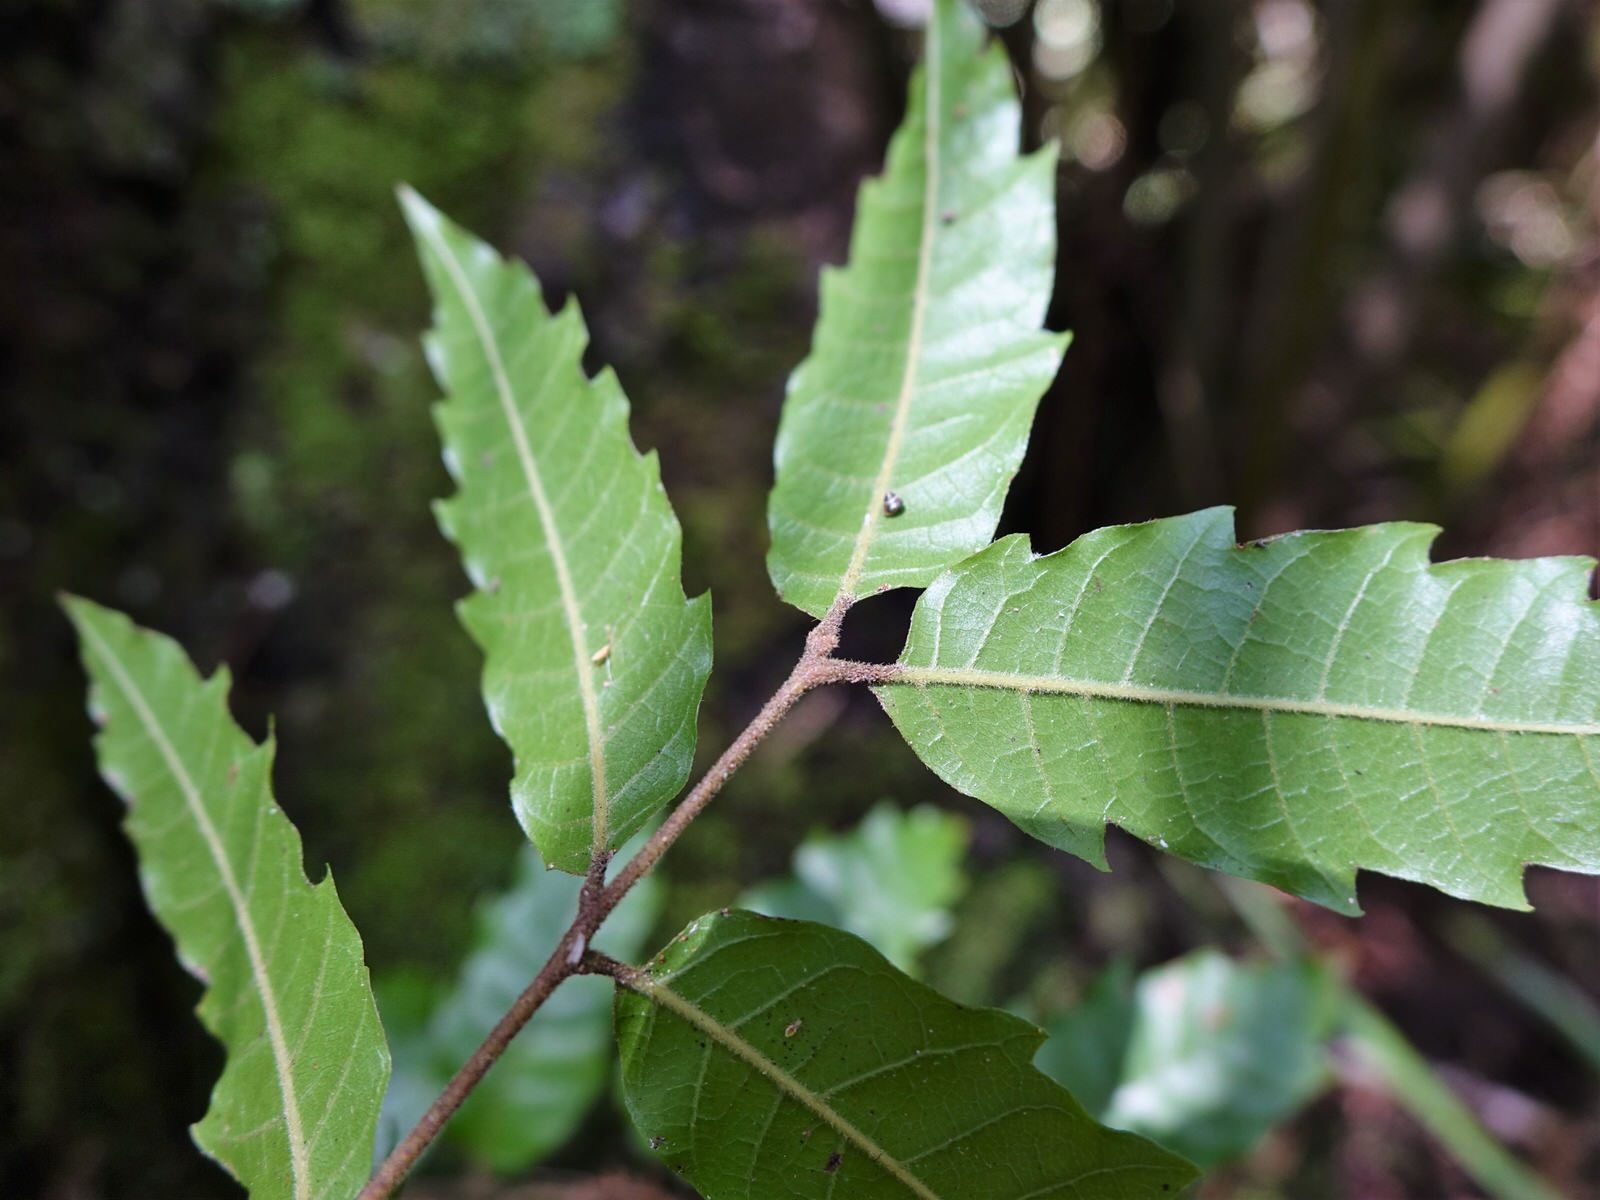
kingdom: Plantae
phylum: Tracheophyta
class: Magnoliopsida
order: Sapindales
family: Sapindaceae
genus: Alectryon
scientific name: Alectryon excelsus
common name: Three kings titoki
